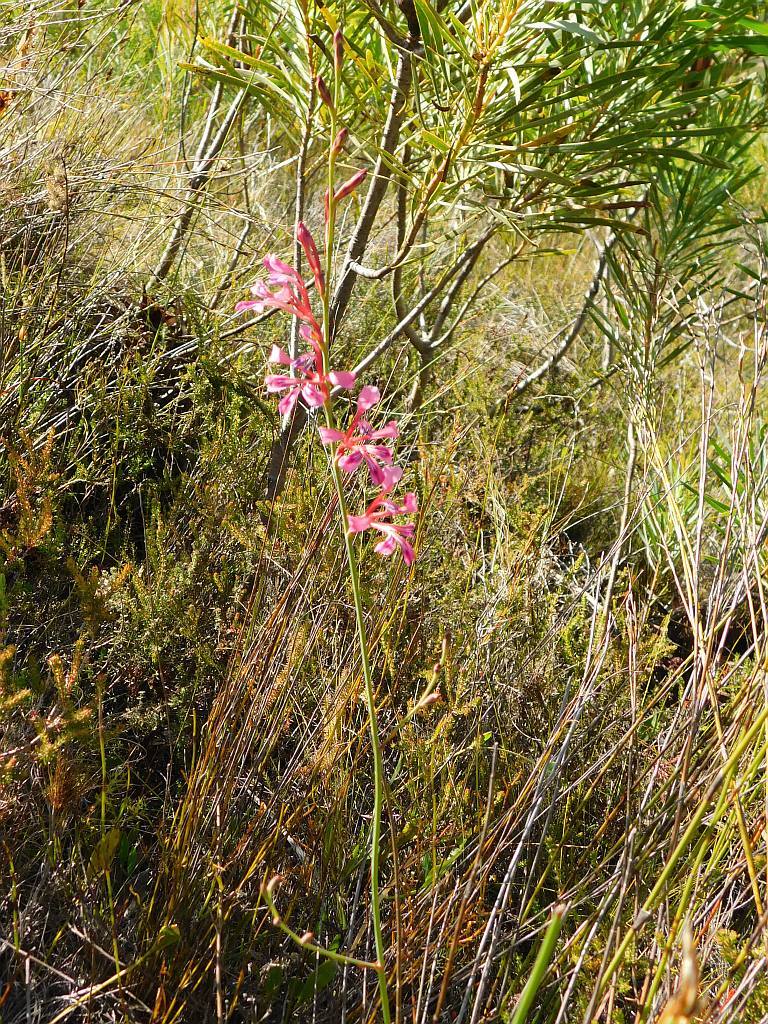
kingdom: Plantae
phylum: Tracheophyta
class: Liliopsida
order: Asparagales
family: Iridaceae
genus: Tritoniopsis
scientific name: Tritoniopsis ramosa
